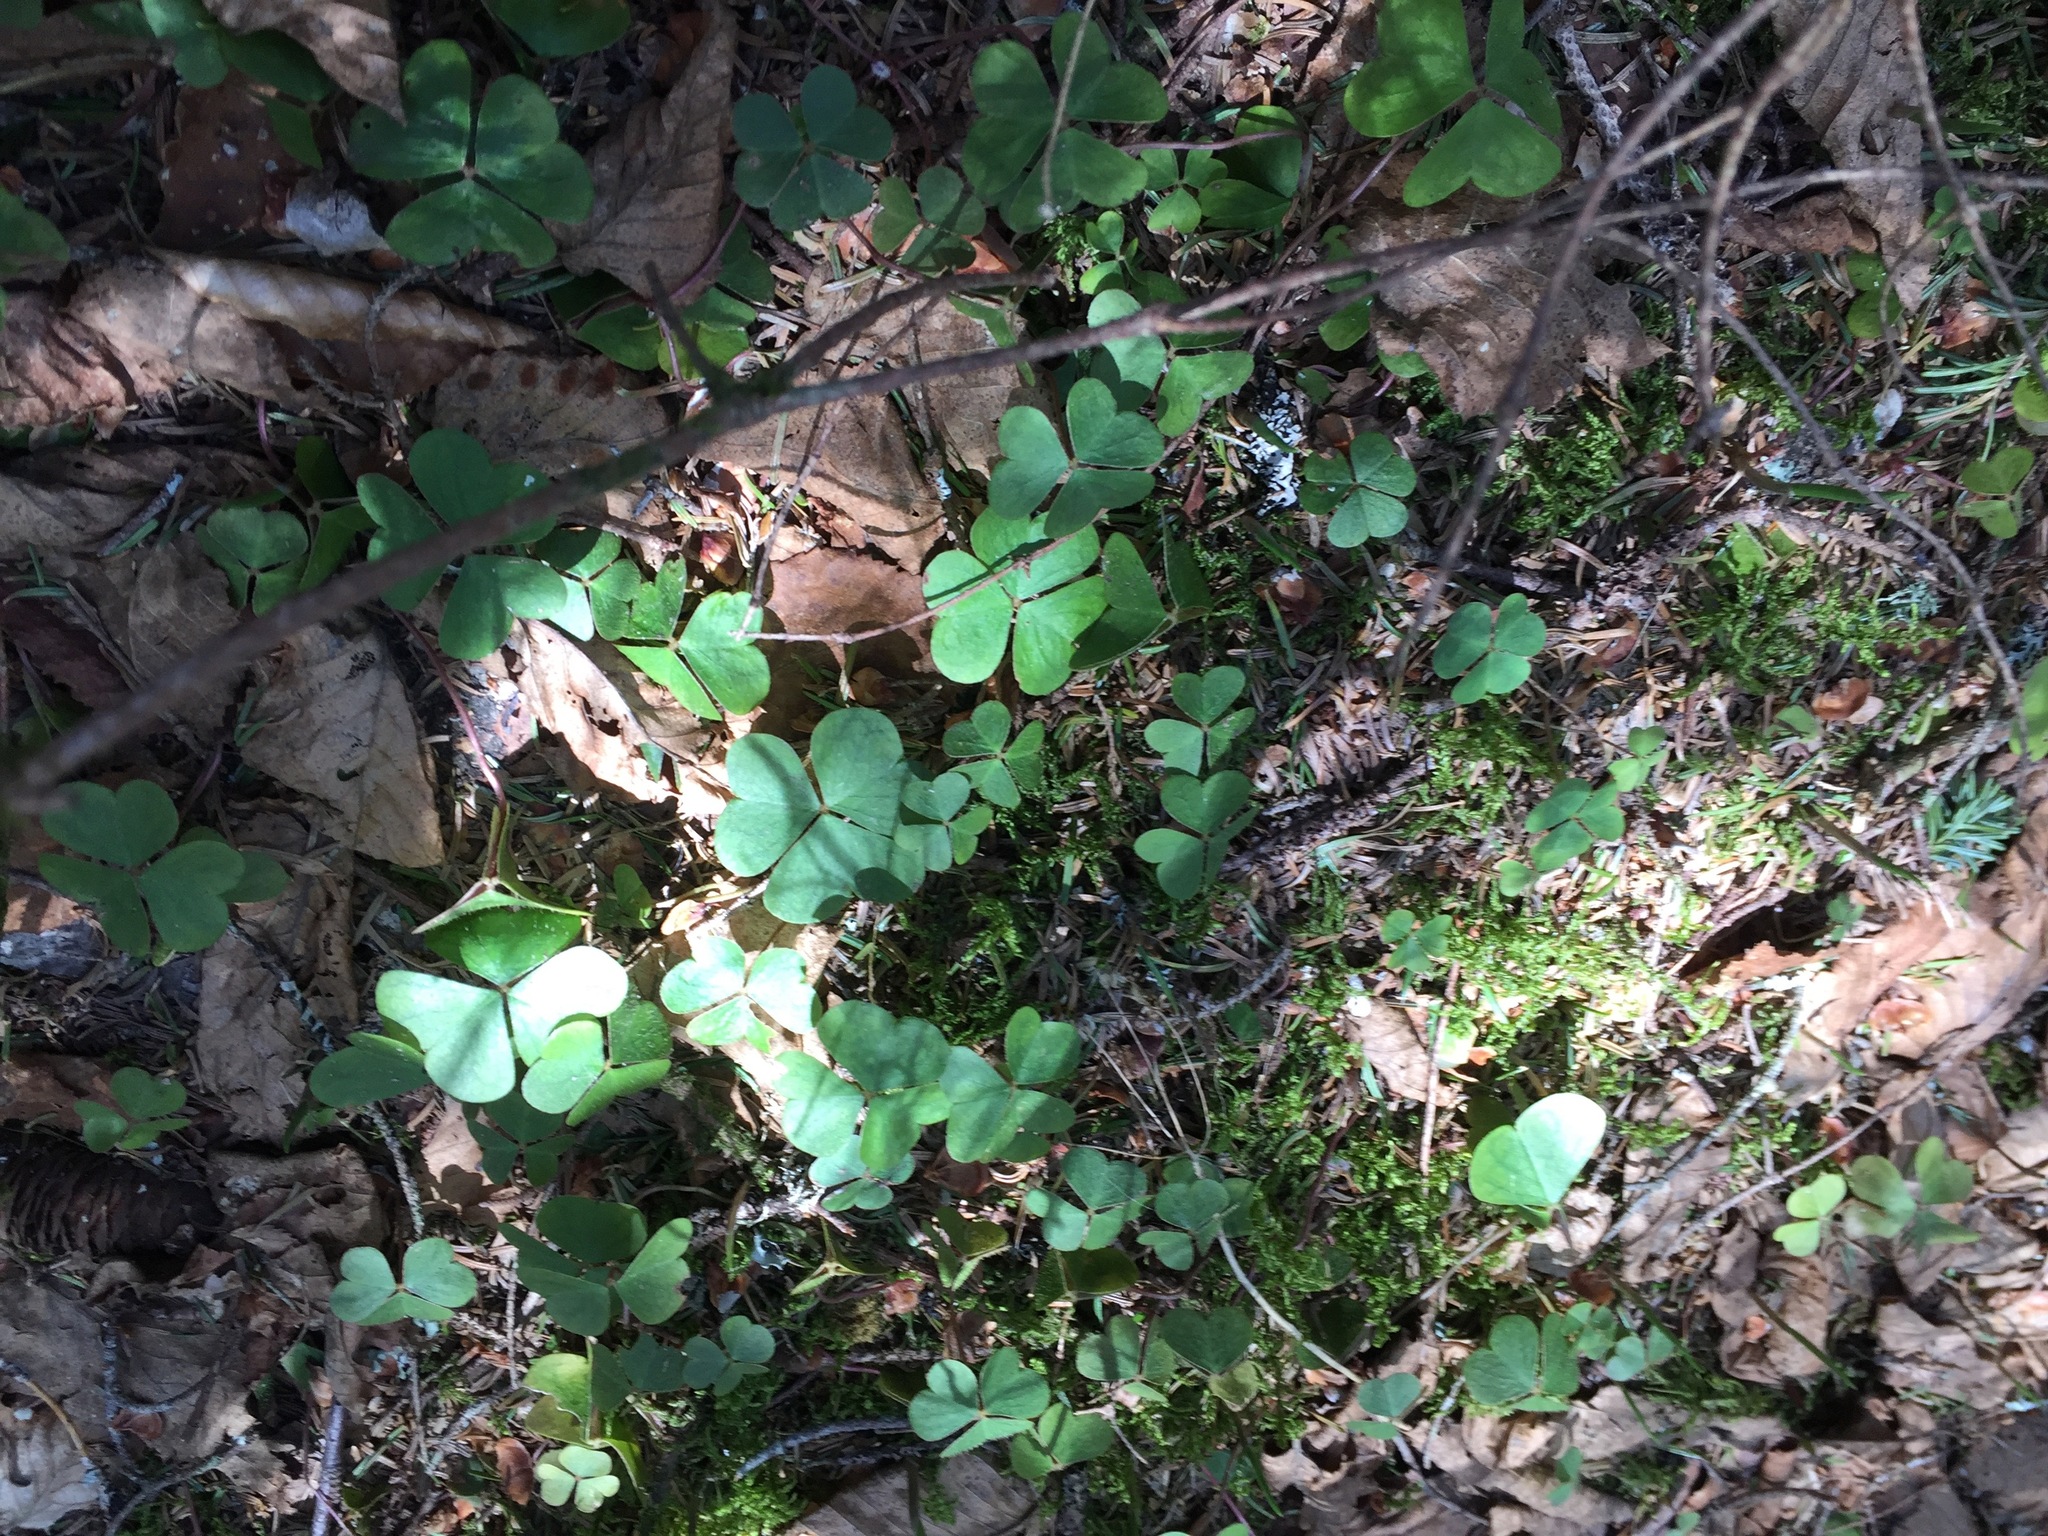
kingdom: Plantae
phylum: Tracheophyta
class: Magnoliopsida
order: Oxalidales
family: Oxalidaceae
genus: Oxalis
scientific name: Oxalis montana
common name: American wood-sorrel
